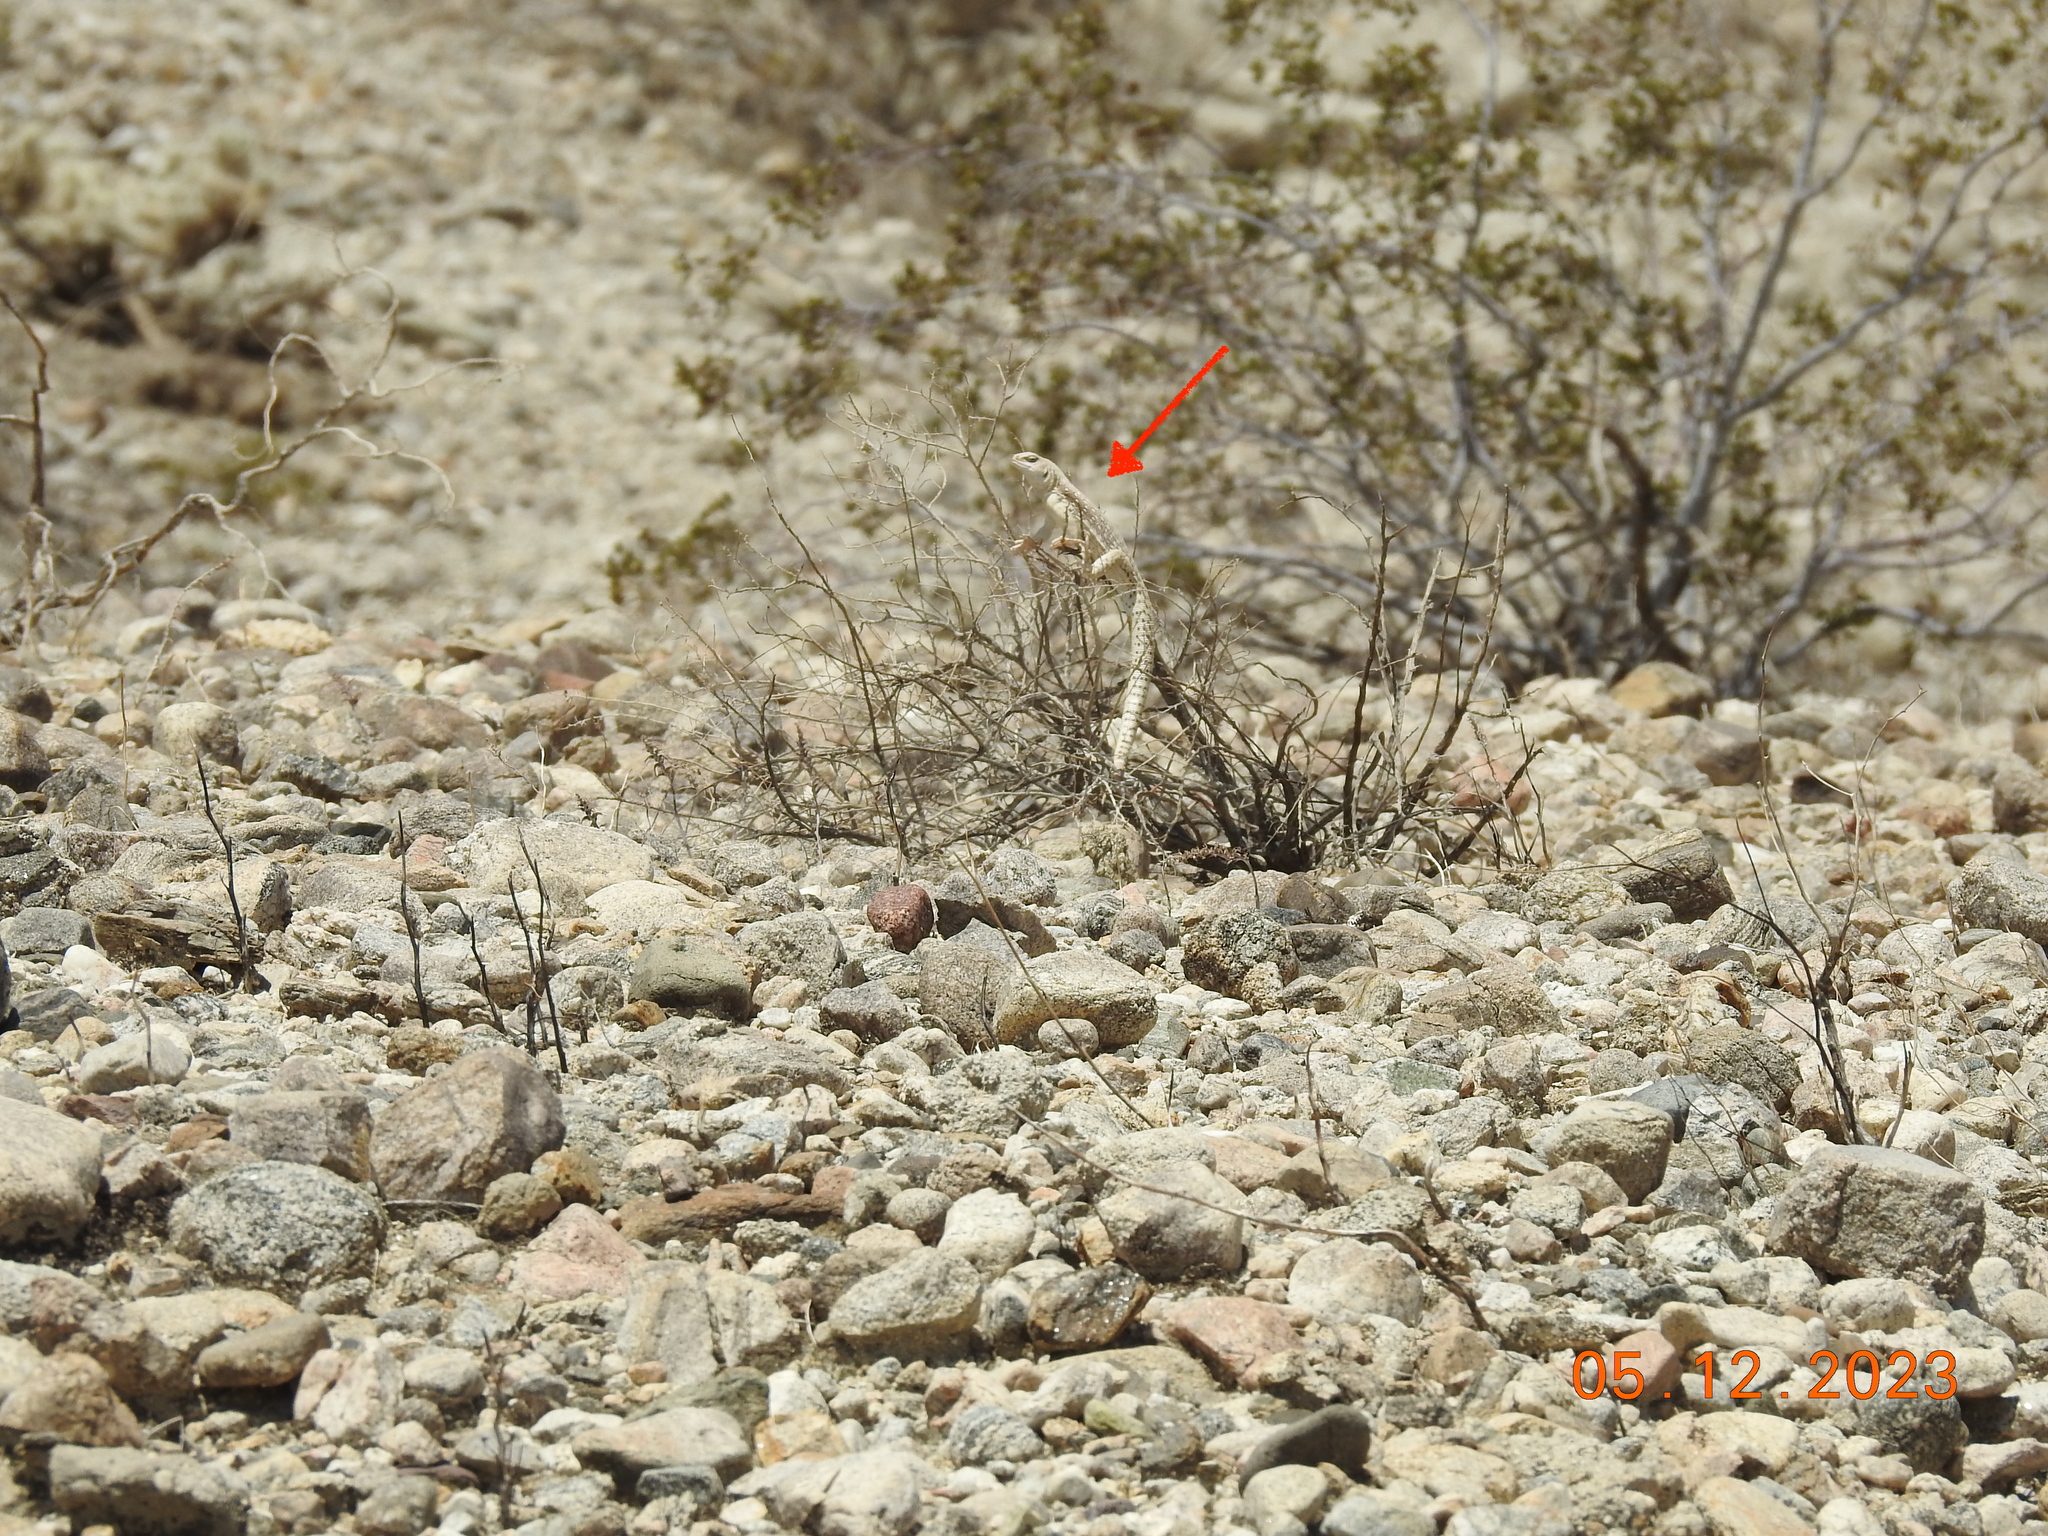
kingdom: Animalia
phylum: Chordata
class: Squamata
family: Iguanidae
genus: Dipsosaurus
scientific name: Dipsosaurus dorsalis
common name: Desert iguana
